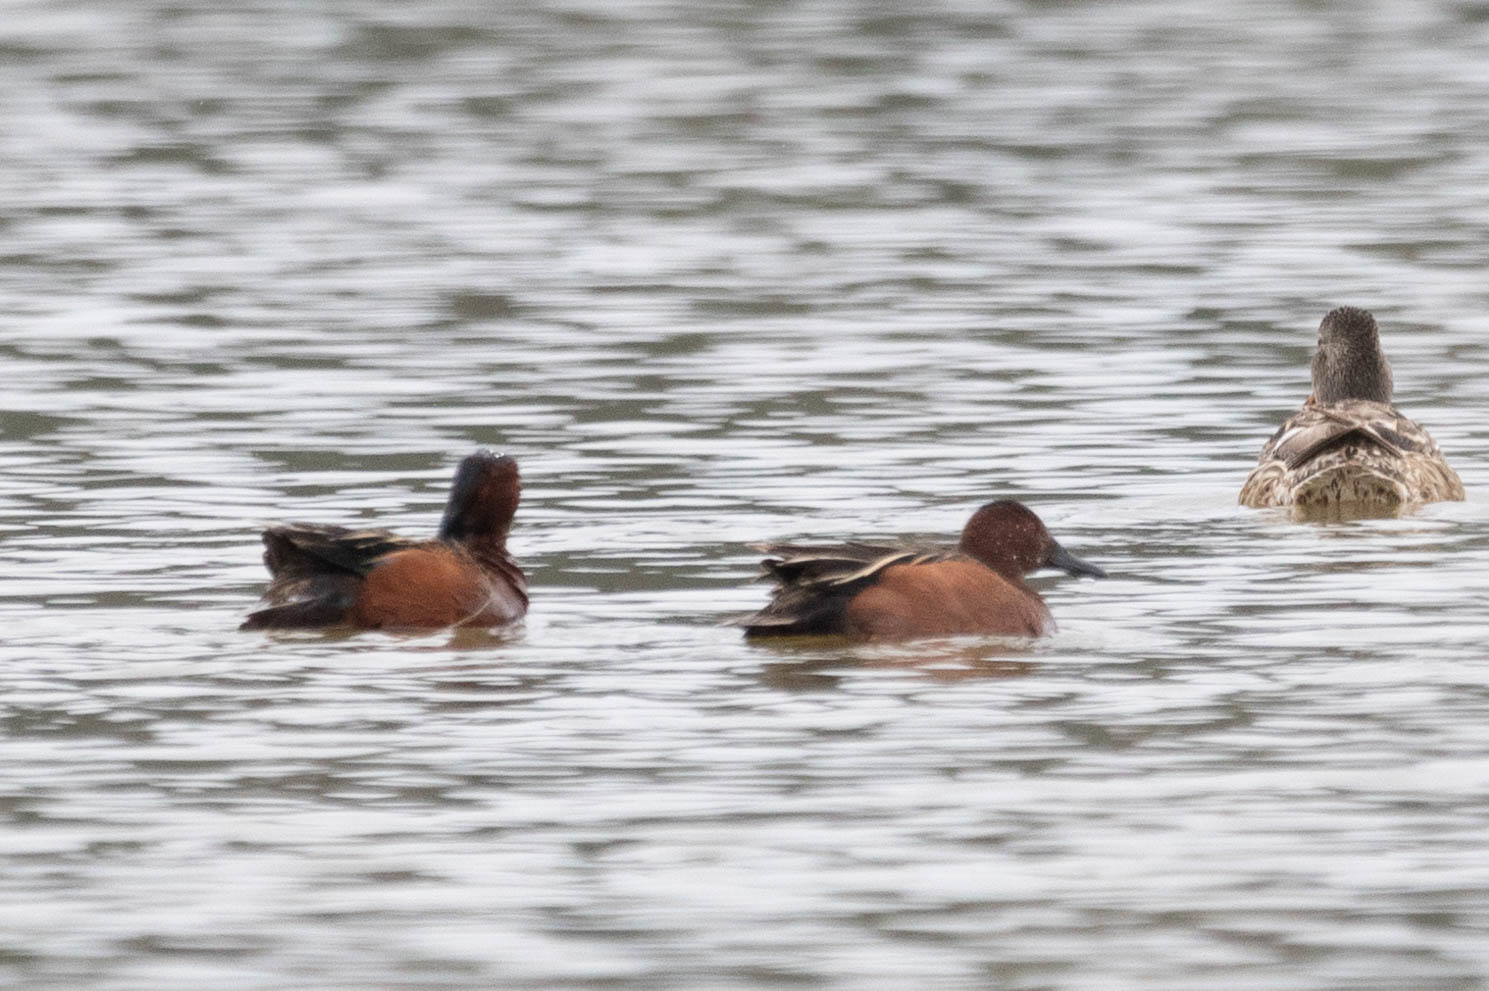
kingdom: Animalia
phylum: Chordata
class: Aves
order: Anseriformes
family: Anatidae
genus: Spatula
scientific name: Spatula cyanoptera
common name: Cinnamon teal
